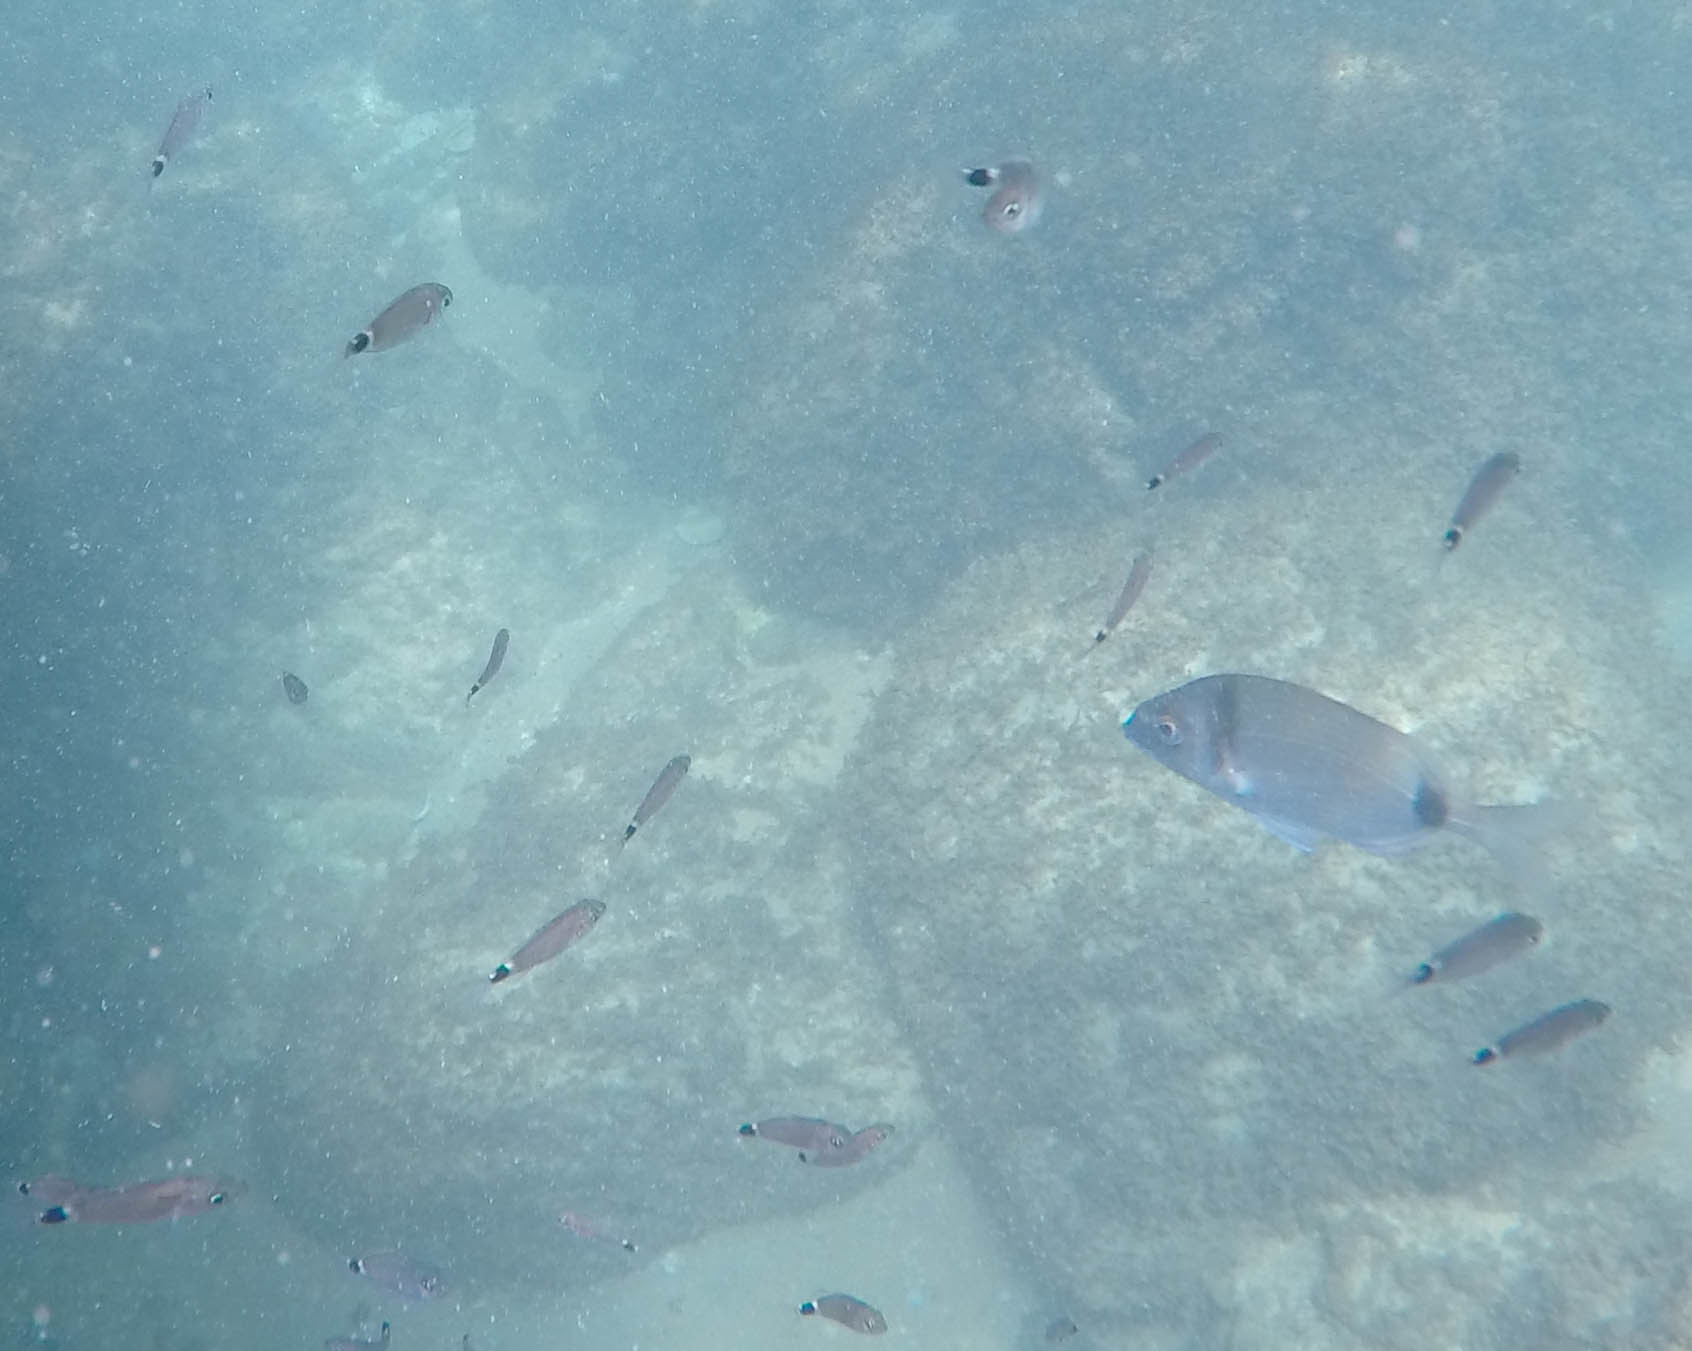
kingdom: Animalia
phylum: Chordata
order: Perciformes
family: Sparidae
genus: Oblada
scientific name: Oblada melanura
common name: Saddled seabream
